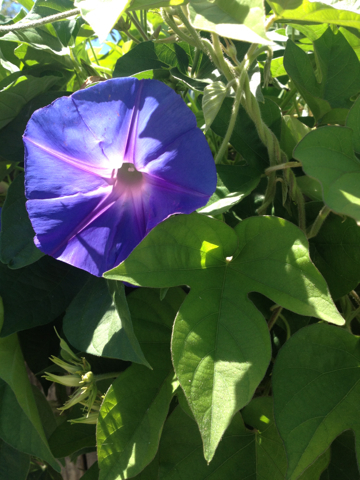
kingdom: Plantae
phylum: Tracheophyta
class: Magnoliopsida
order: Solanales
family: Convolvulaceae
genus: Ipomoea
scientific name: Ipomoea indica
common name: Blue dawnflower
